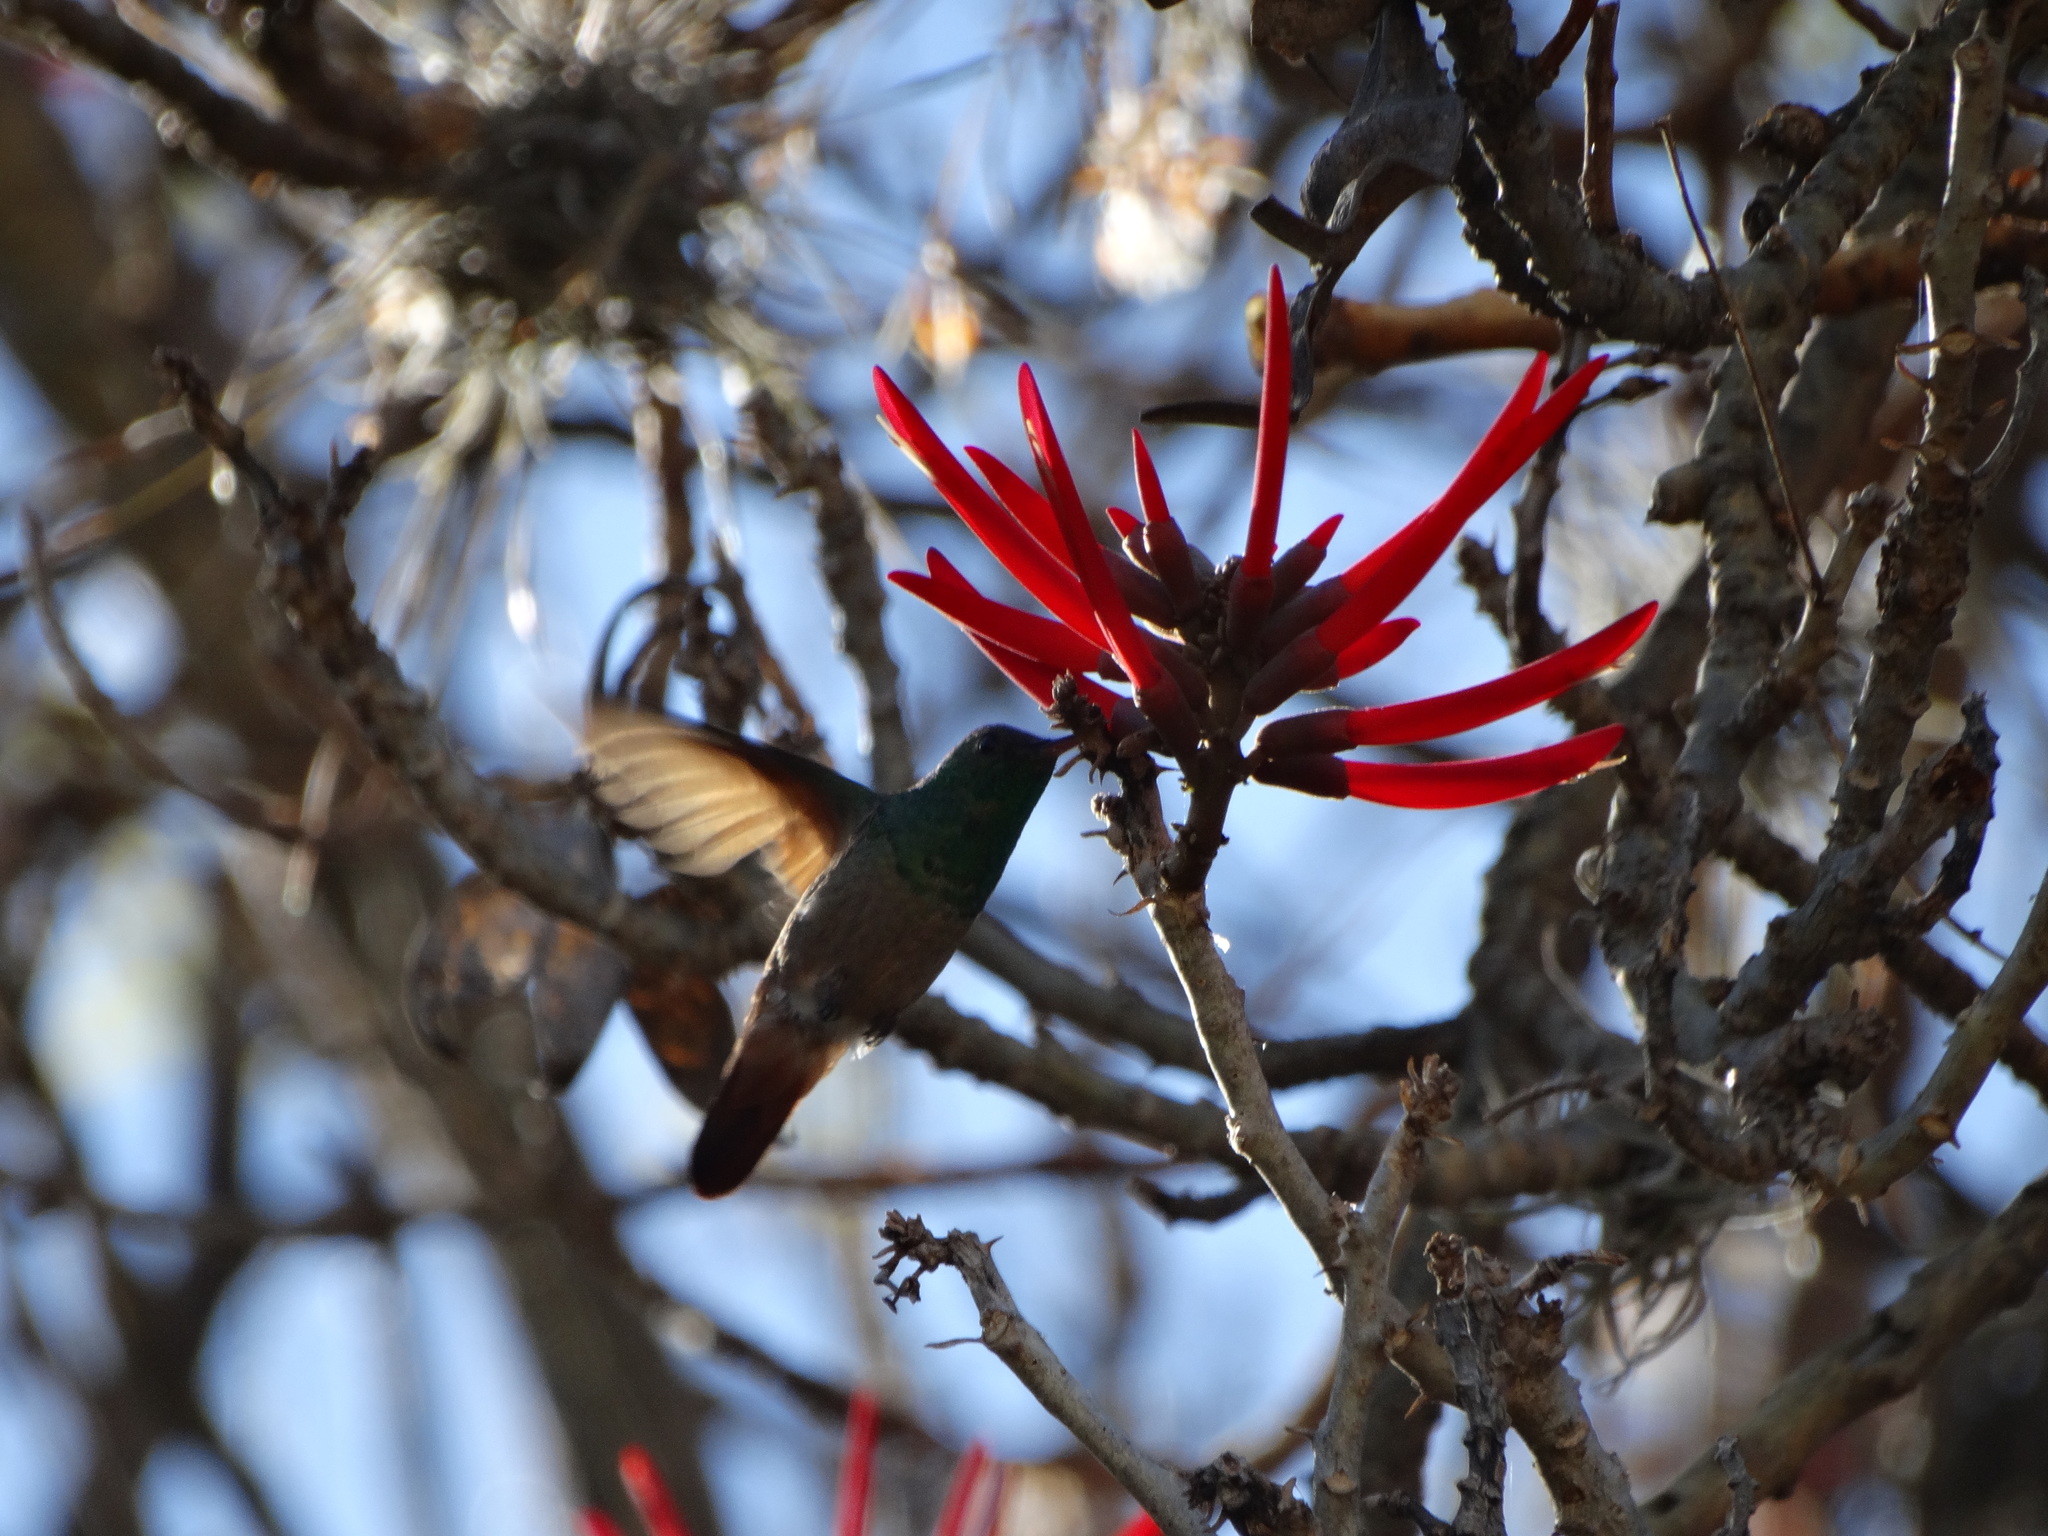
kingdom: Animalia
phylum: Chordata
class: Aves
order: Apodiformes
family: Trochilidae
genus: Saucerottia
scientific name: Saucerottia beryllina
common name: Berylline hummingbird
